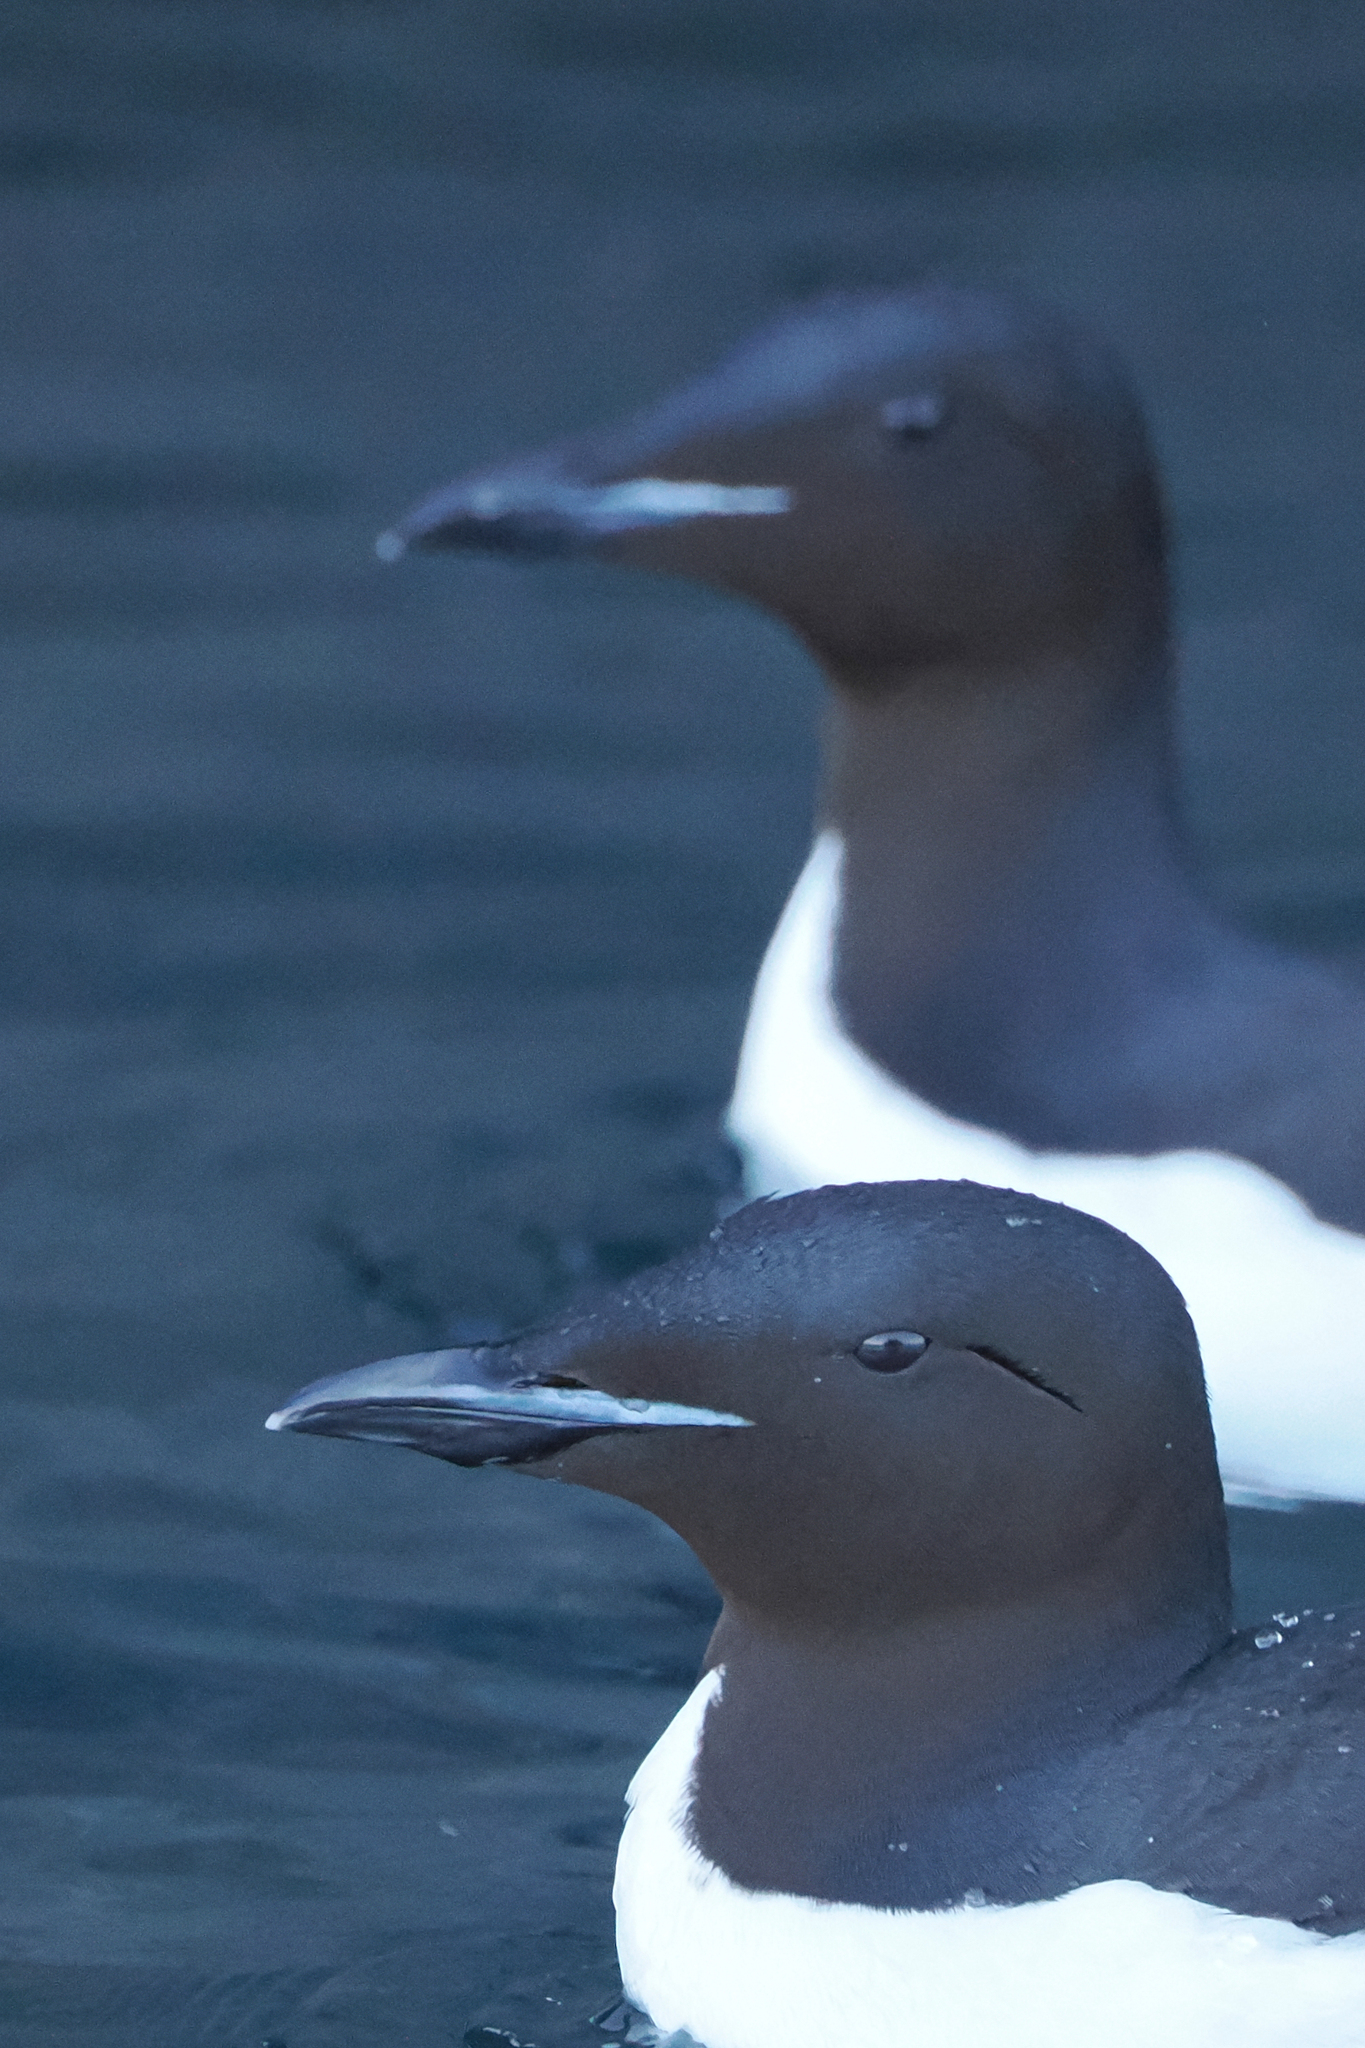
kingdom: Animalia
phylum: Chordata
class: Aves
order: Charadriiformes
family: Alcidae
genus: Uria
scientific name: Uria lomvia
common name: Thick-billed murre
